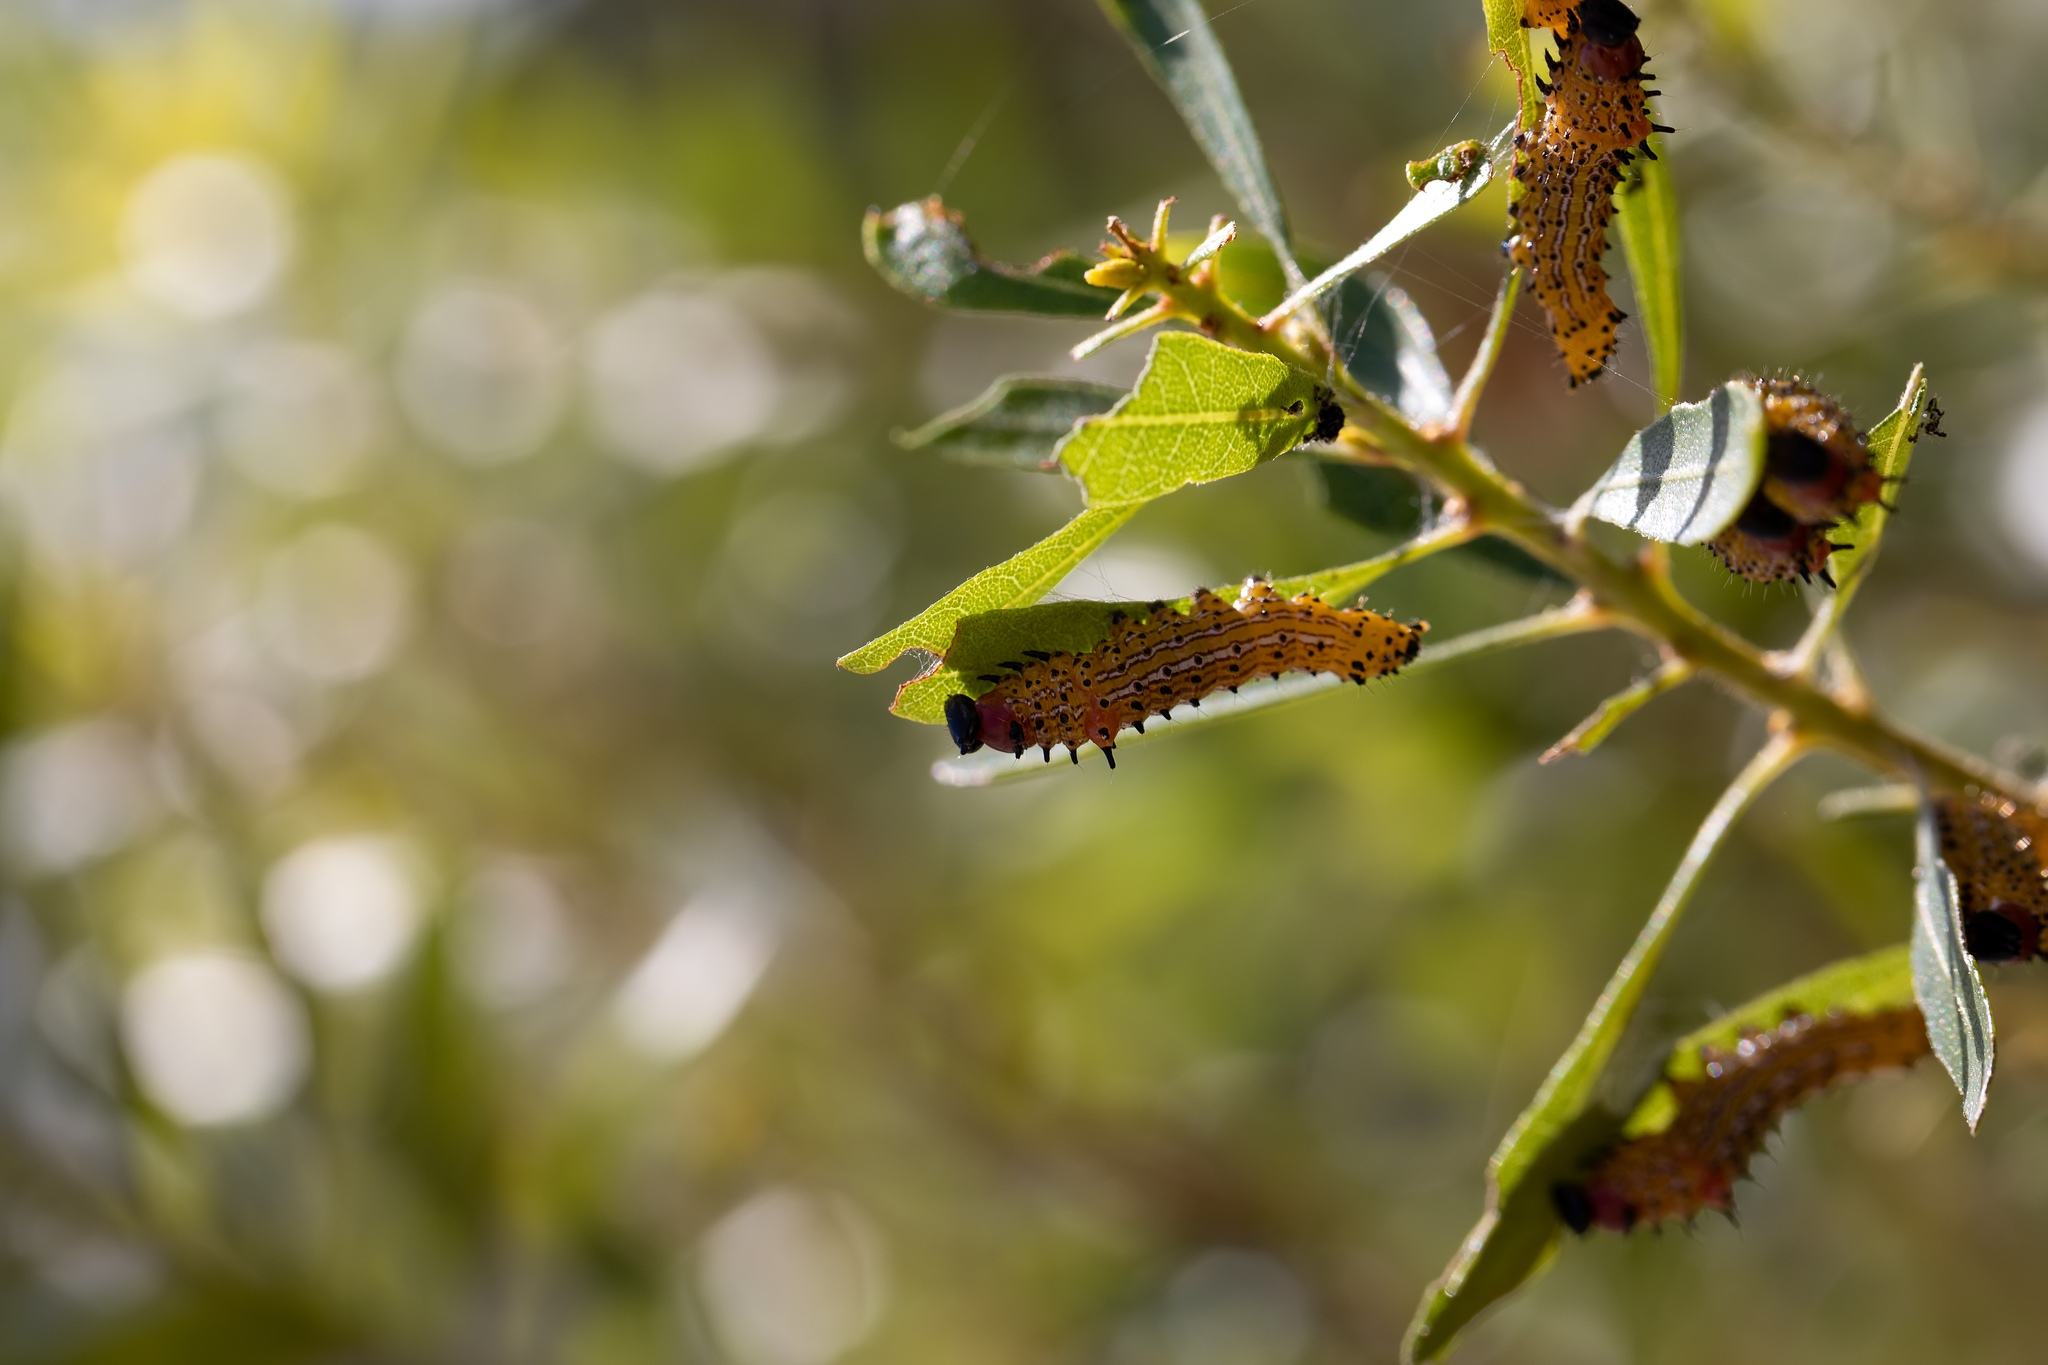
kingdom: Animalia
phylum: Arthropoda
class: Insecta
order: Lepidoptera
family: Notodontidae
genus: Schizura
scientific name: Schizura
